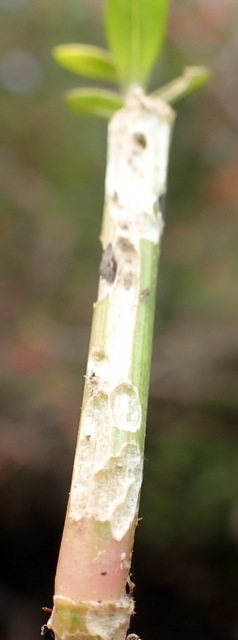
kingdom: Animalia
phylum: Arthropoda
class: Insecta
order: Coleoptera
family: Chrysomelidae
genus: Agasicles
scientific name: Agasicles hygrophila
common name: Alligatorweed flea beetle
